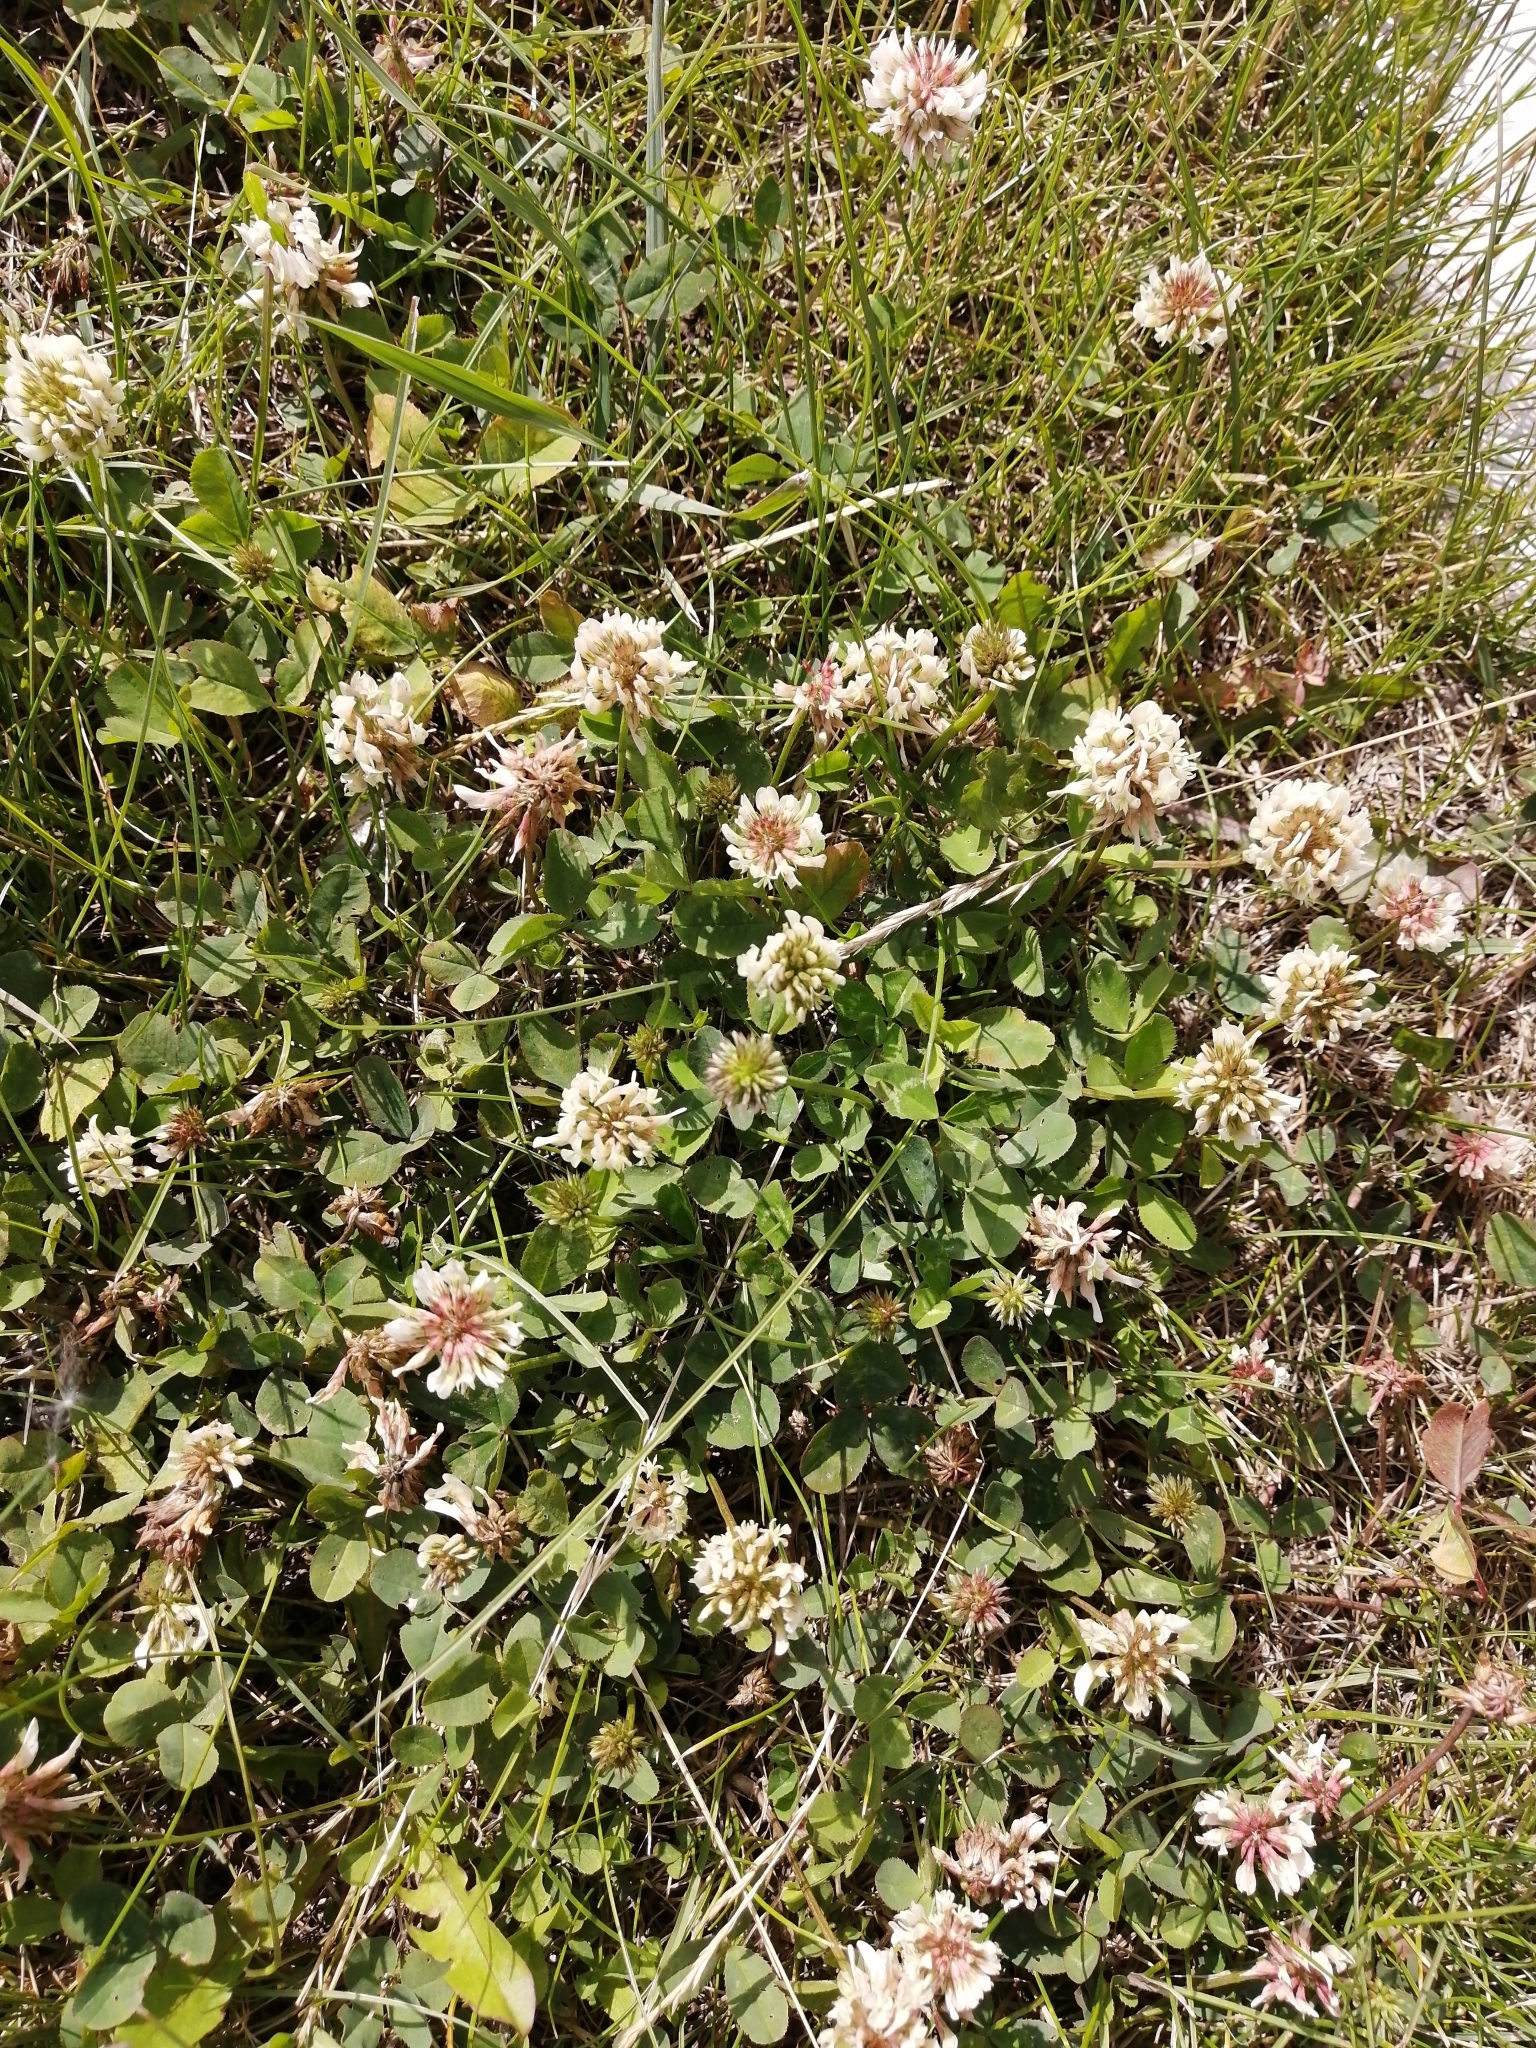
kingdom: Plantae
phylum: Tracheophyta
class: Magnoliopsida
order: Fabales
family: Fabaceae
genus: Trifolium
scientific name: Trifolium repens
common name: White clover
